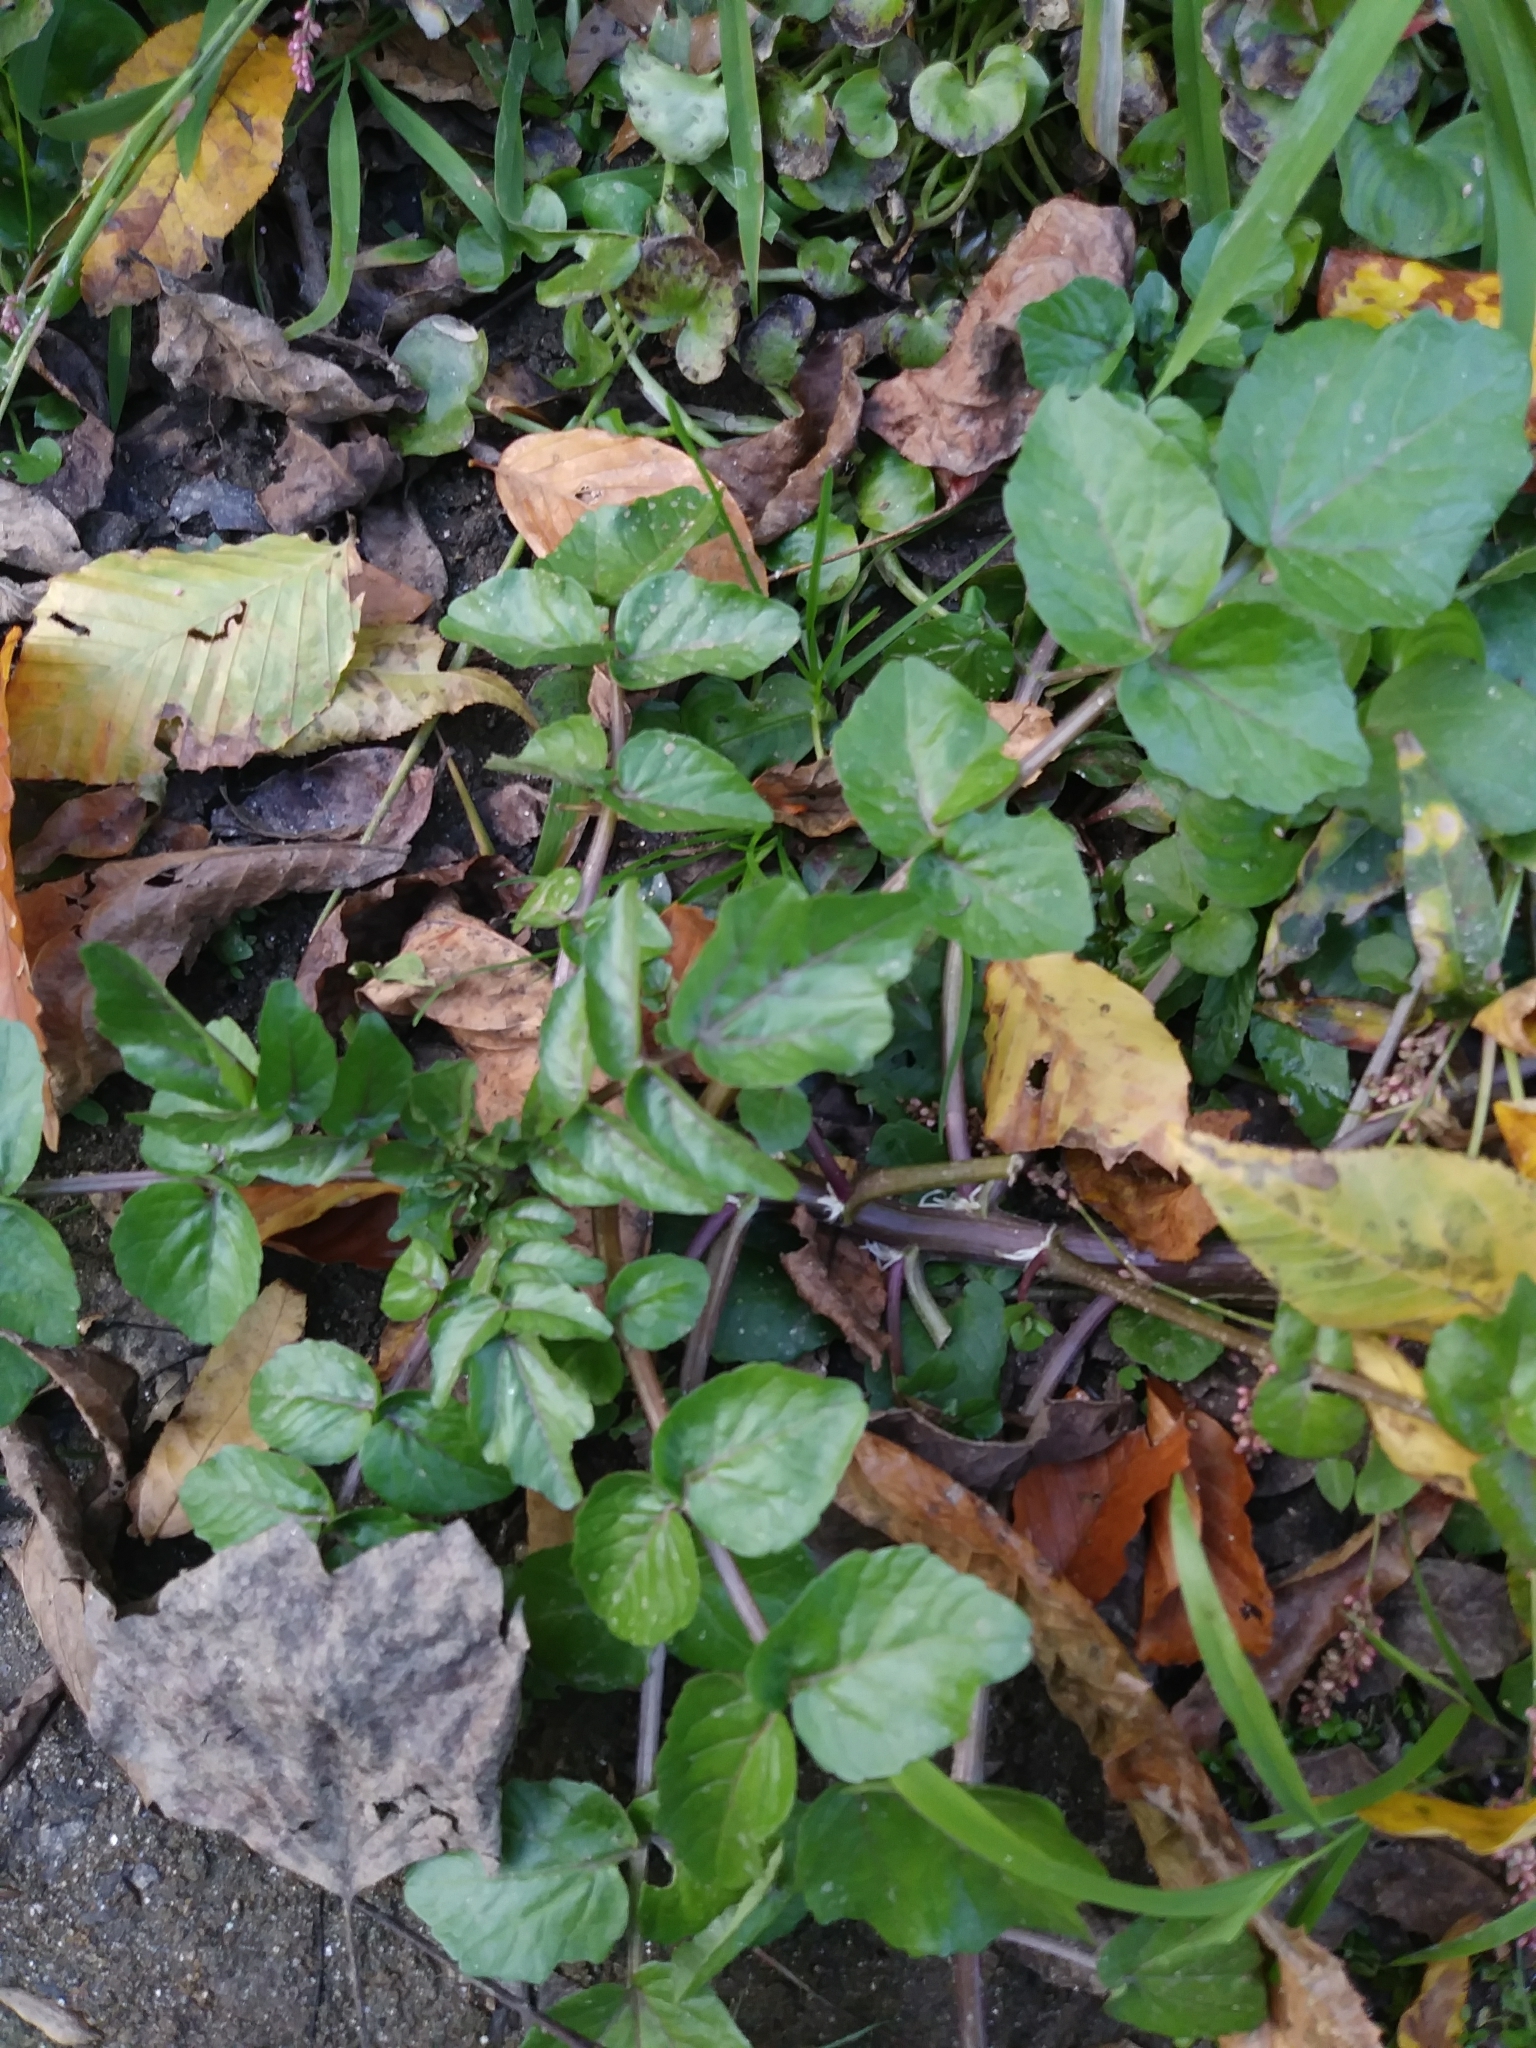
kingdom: Plantae
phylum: Tracheophyta
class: Magnoliopsida
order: Brassicales
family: Brassicaceae
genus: Nasturtium
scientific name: Nasturtium officinale
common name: Watercress
